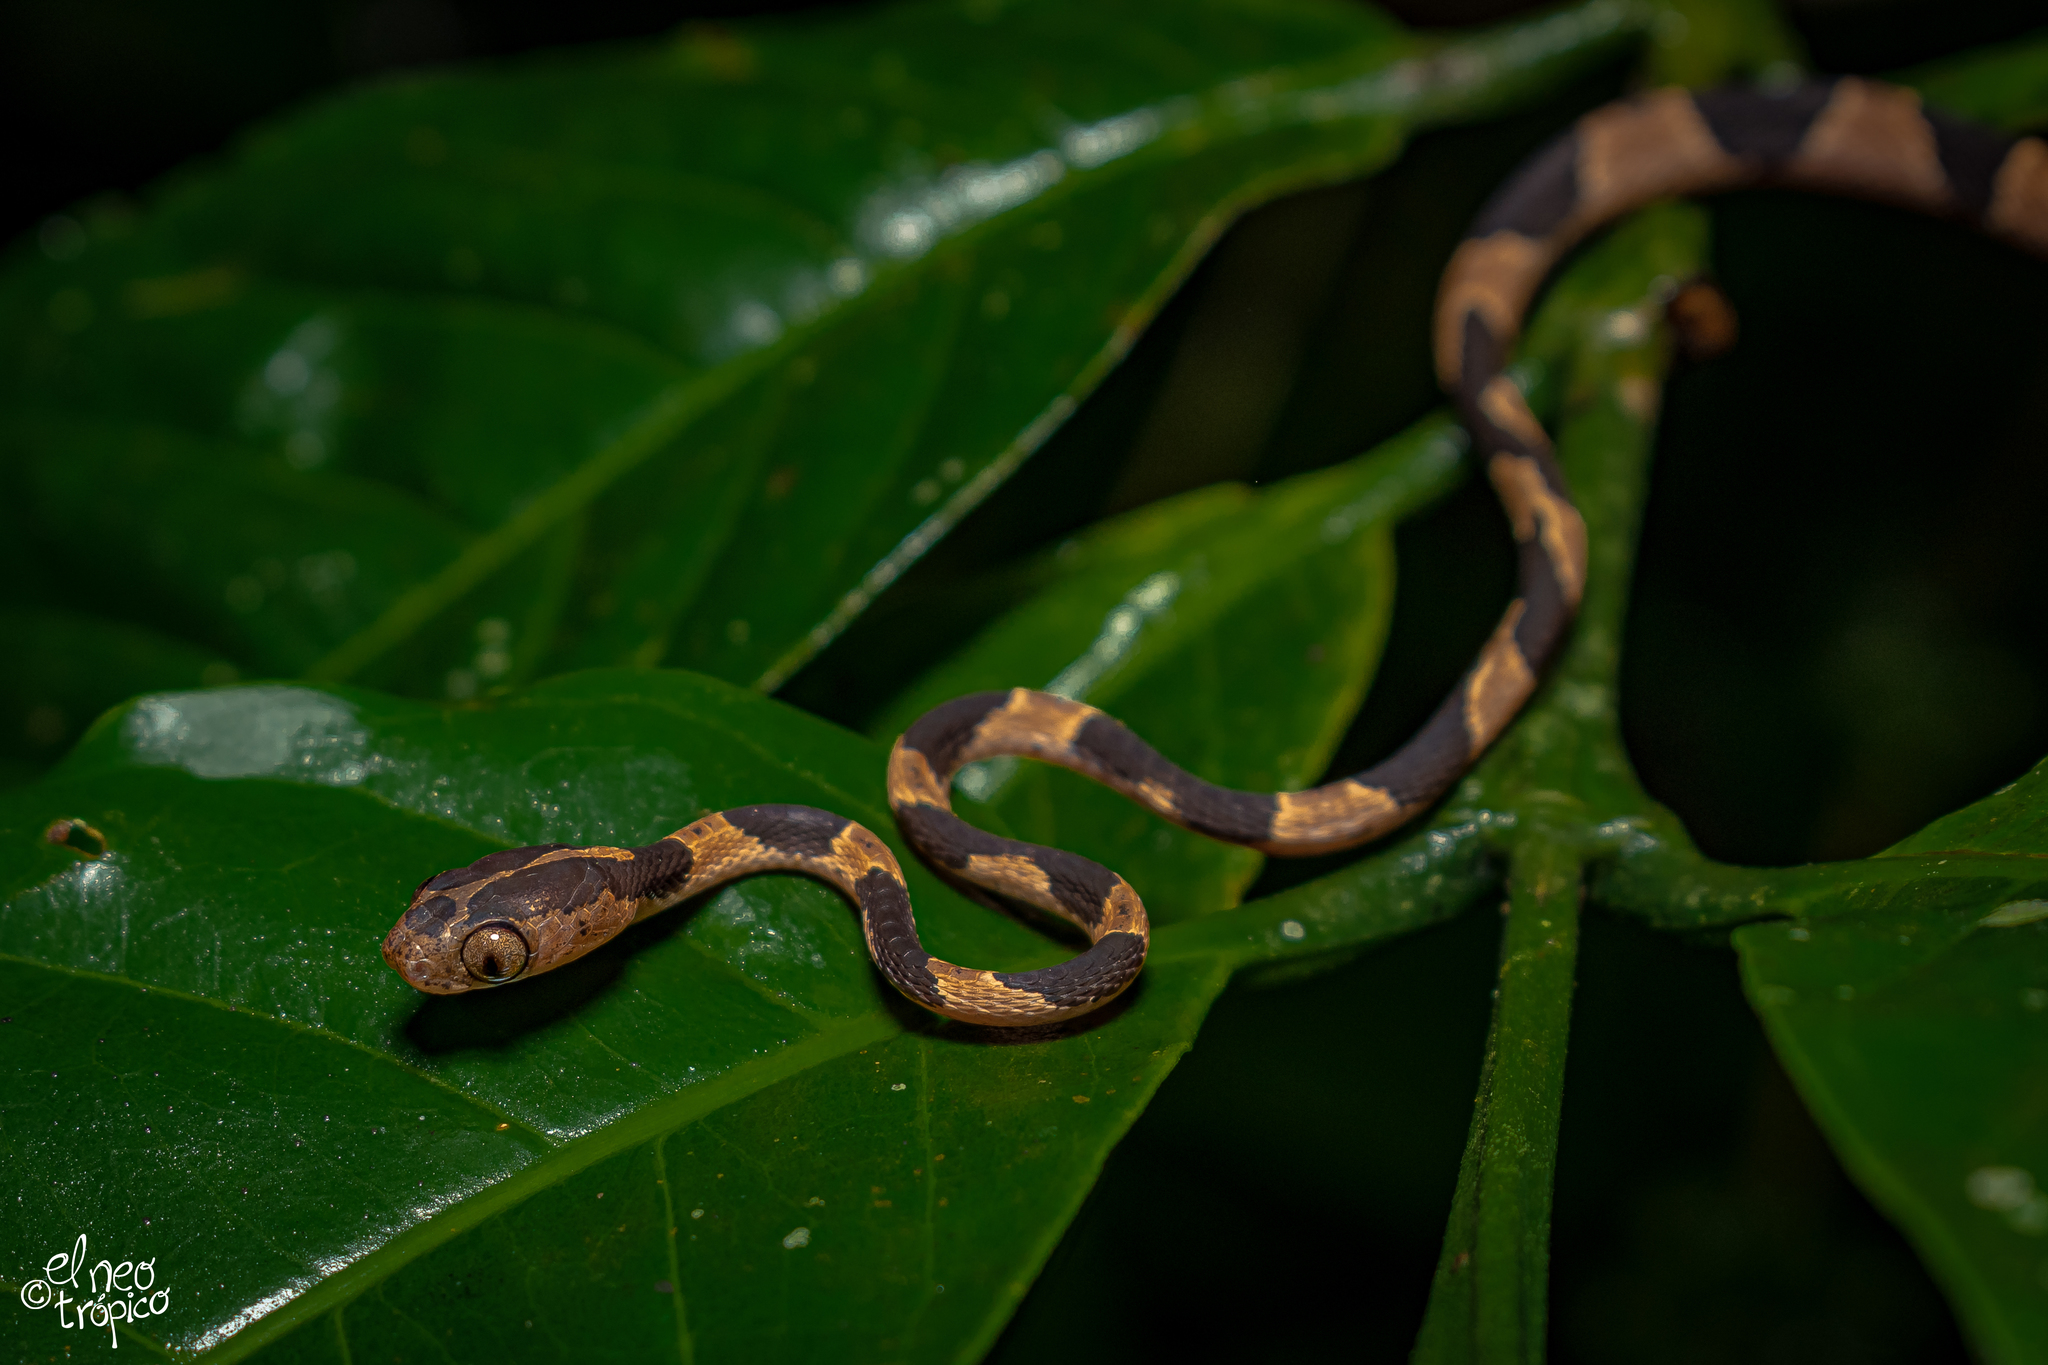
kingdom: Animalia
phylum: Chordata
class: Squamata
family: Colubridae
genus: Imantodes
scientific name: Imantodes cenchoa
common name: Blunthead tree snake
